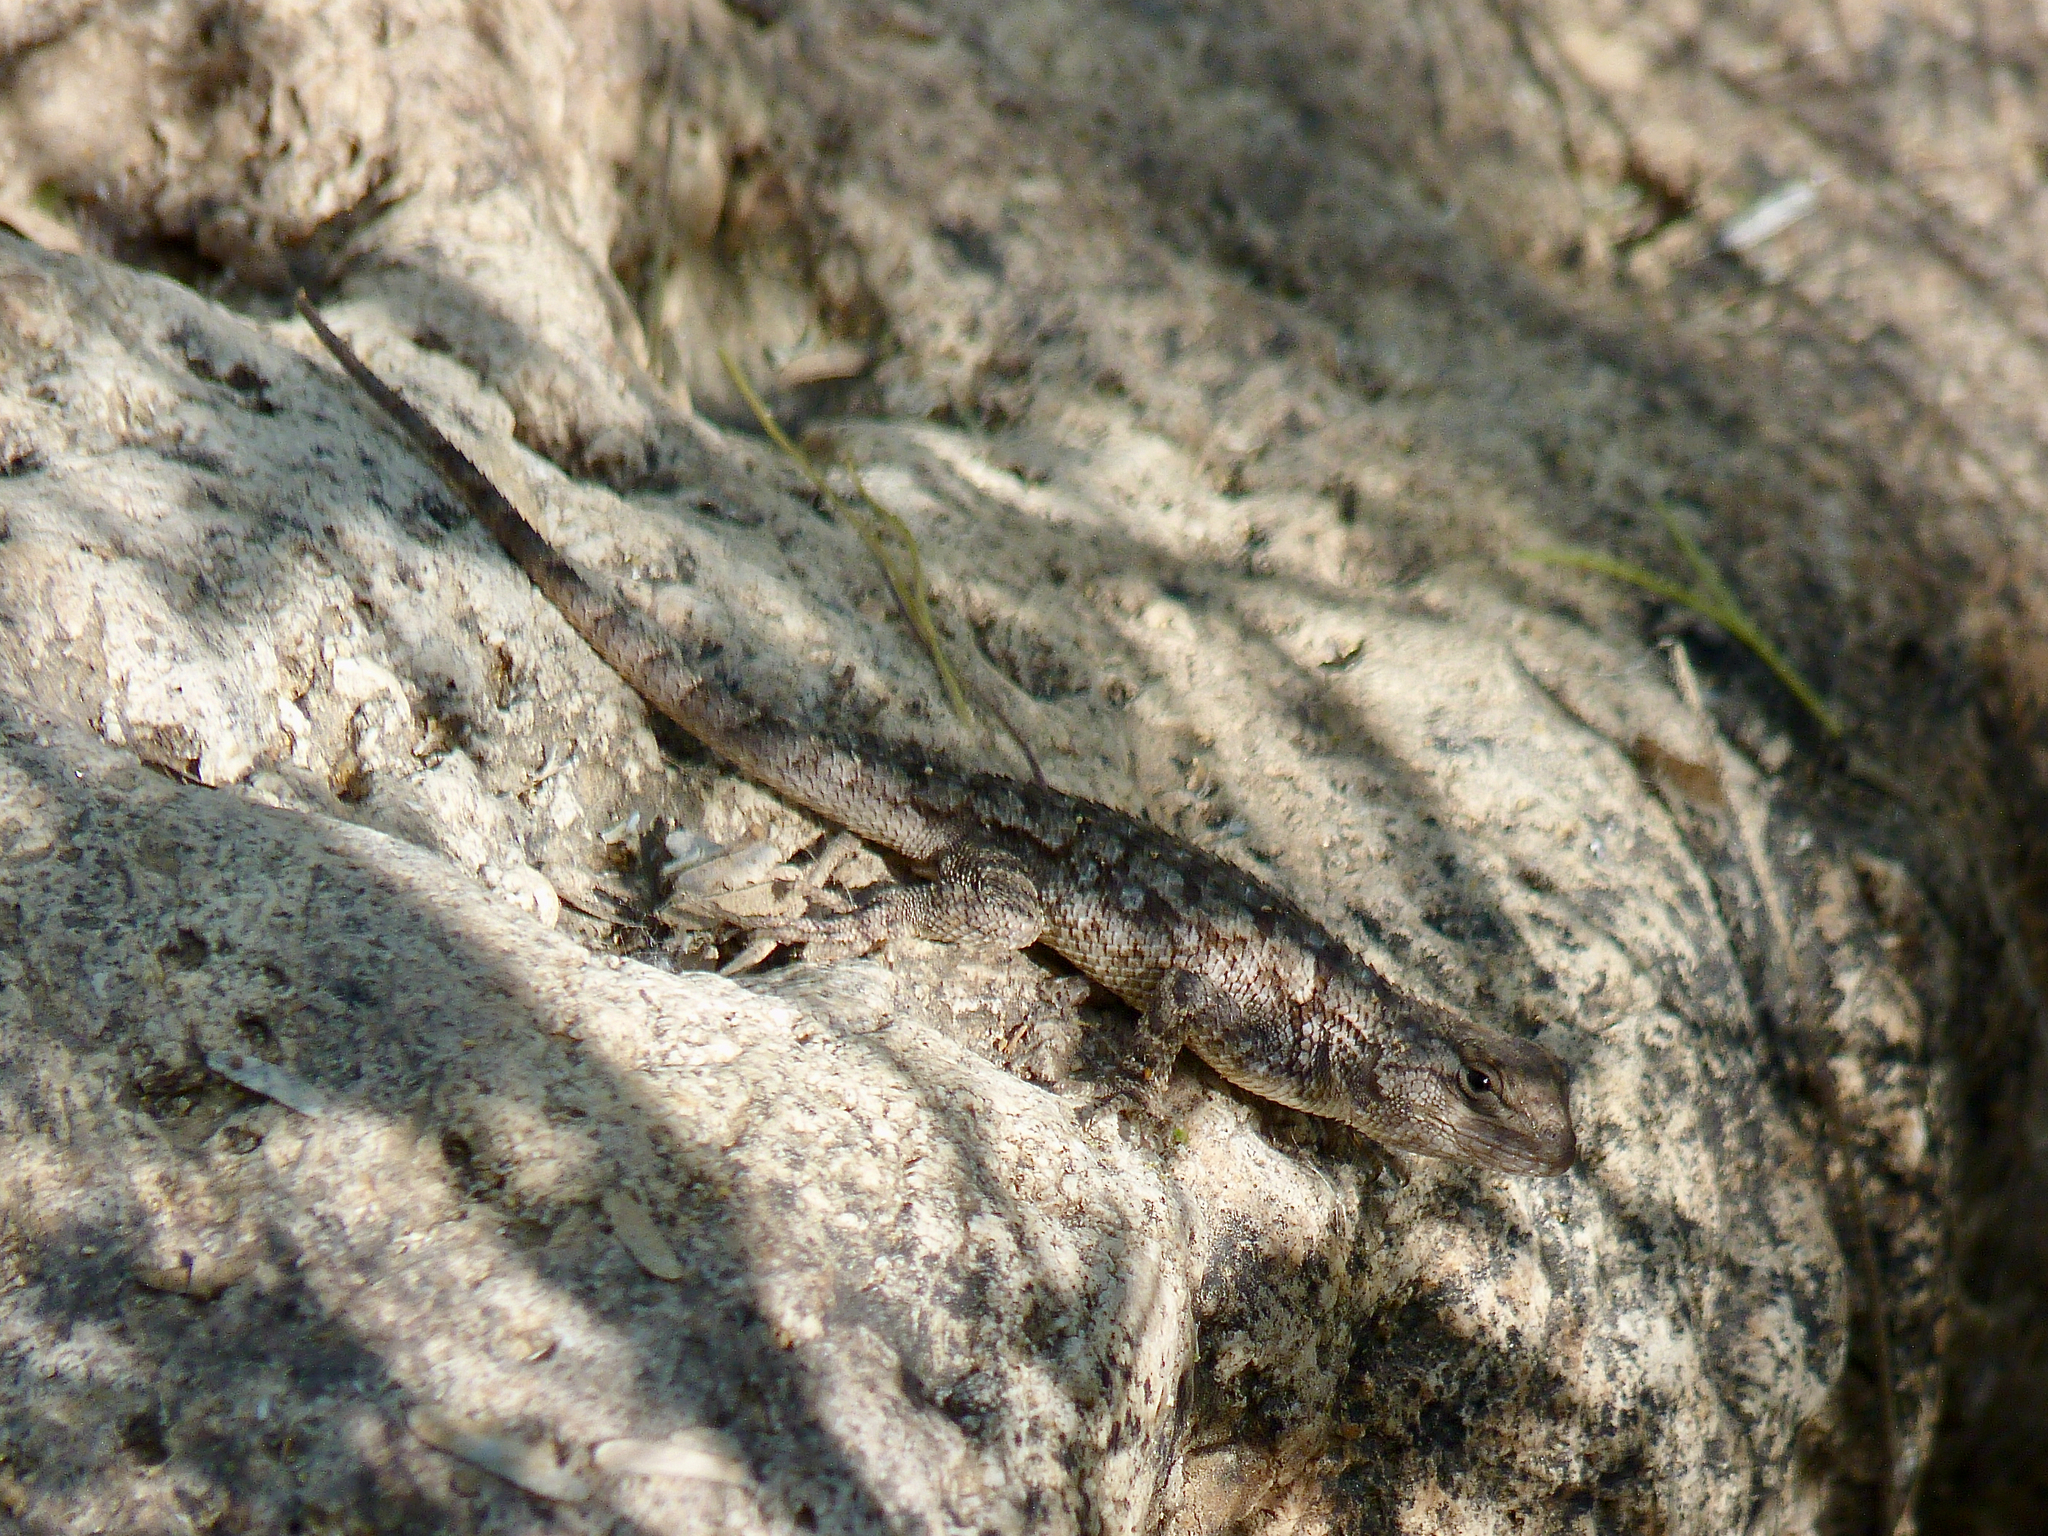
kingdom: Animalia
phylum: Chordata
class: Squamata
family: Phrynosomatidae
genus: Sceloporus
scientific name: Sceloporus clarkii
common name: Clark's spiny lizard
